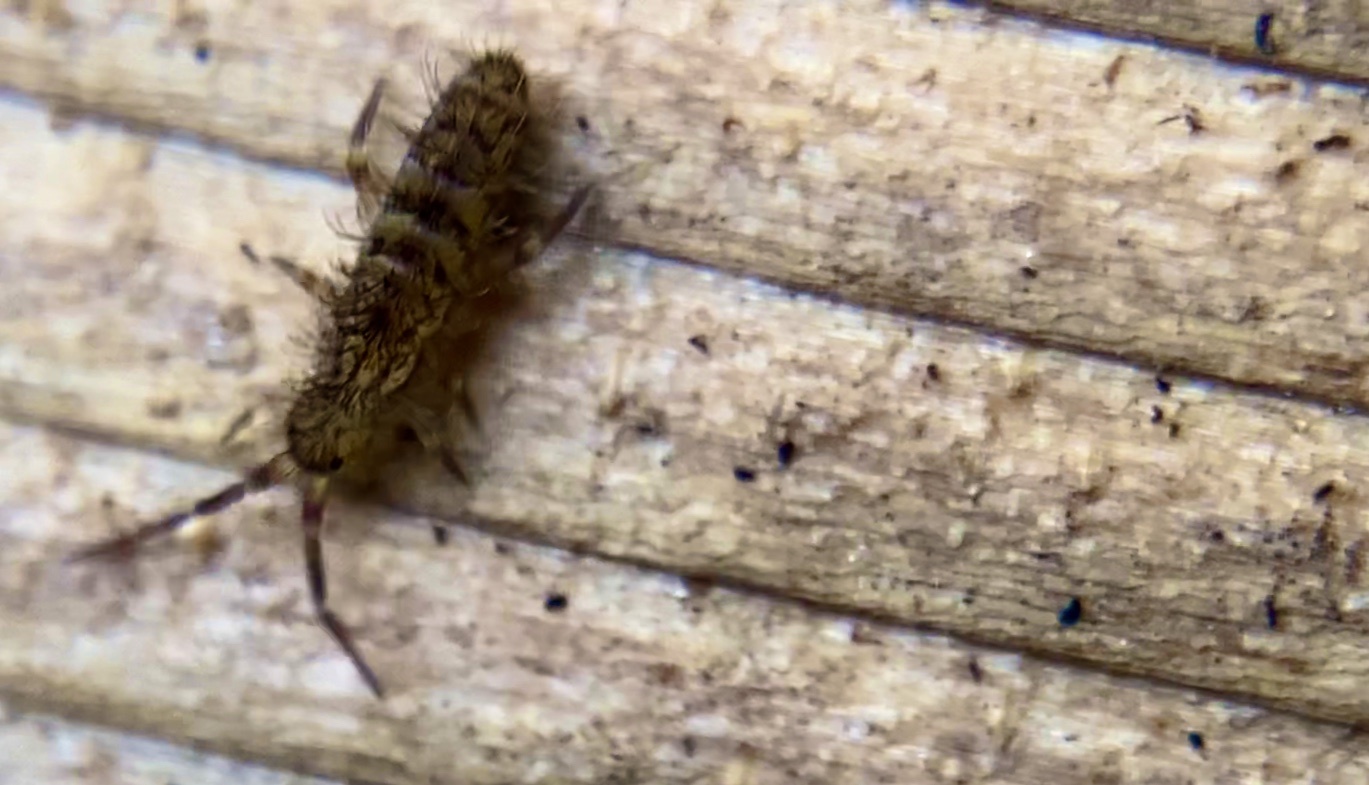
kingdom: Animalia
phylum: Arthropoda
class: Collembola
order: Entomobryomorpha
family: Orchesellidae
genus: Orchesella
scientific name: Orchesella villosa
